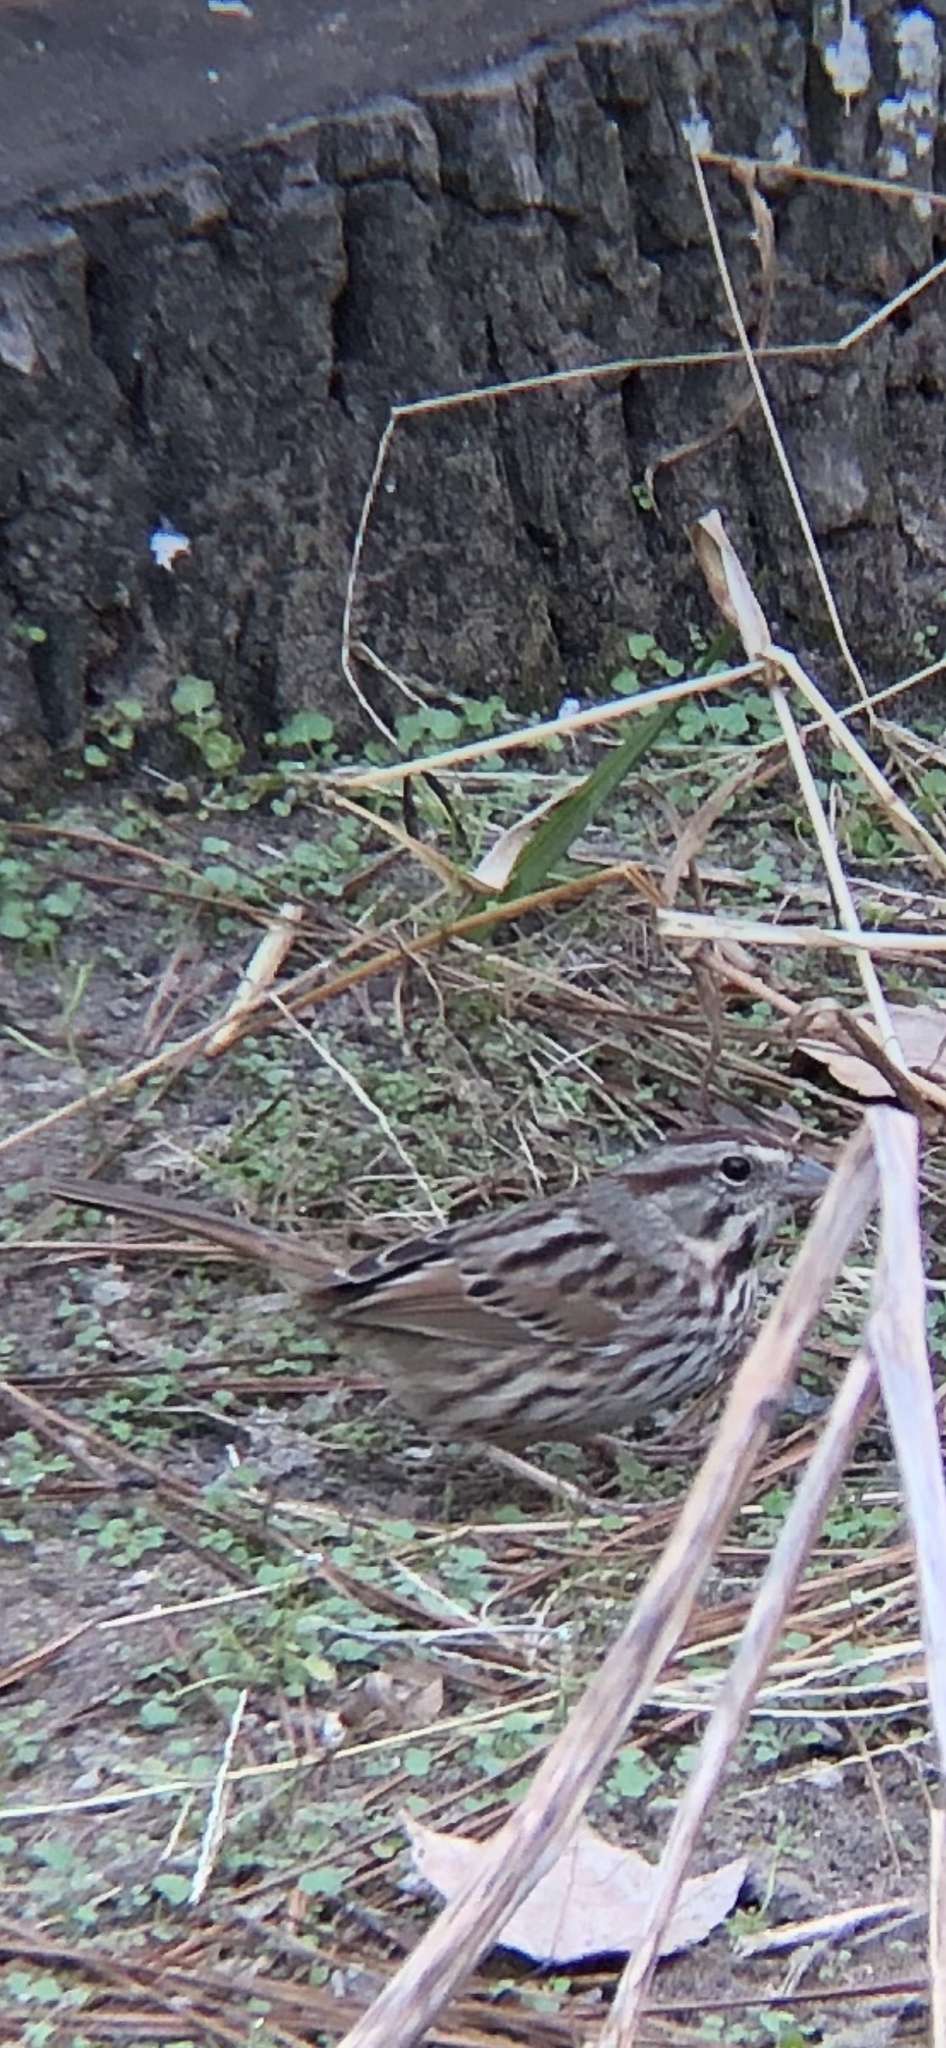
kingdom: Animalia
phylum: Chordata
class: Aves
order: Passeriformes
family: Passerellidae
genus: Melospiza
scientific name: Melospiza melodia
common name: Song sparrow
